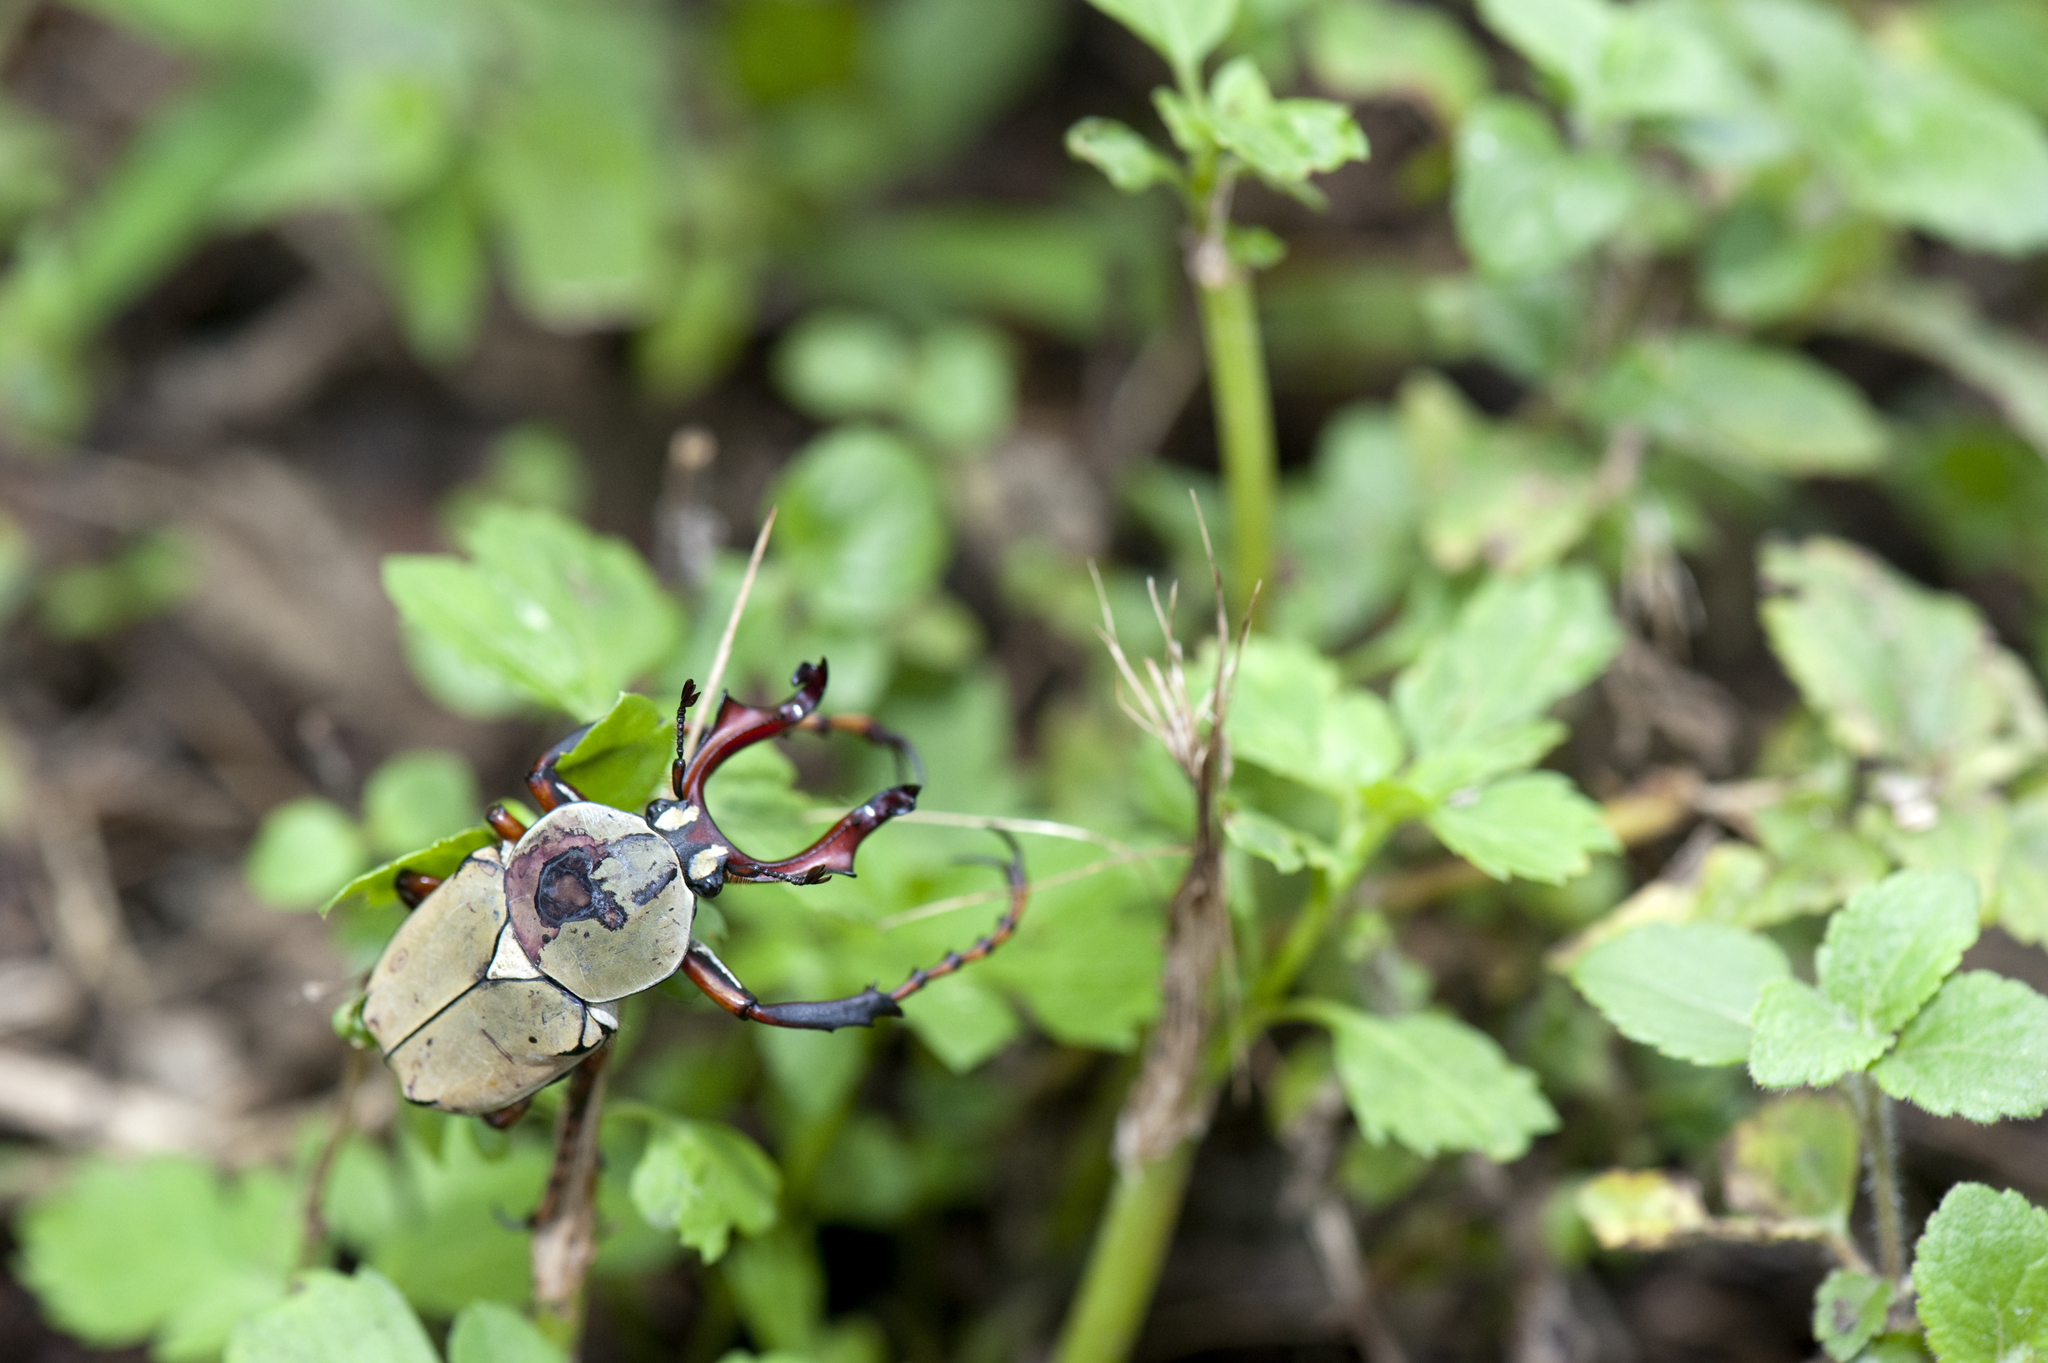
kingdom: Animalia
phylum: Arthropoda
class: Insecta
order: Coleoptera
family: Scarabaeidae
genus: Dicronocephalus
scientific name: Dicronocephalus bourgoini
